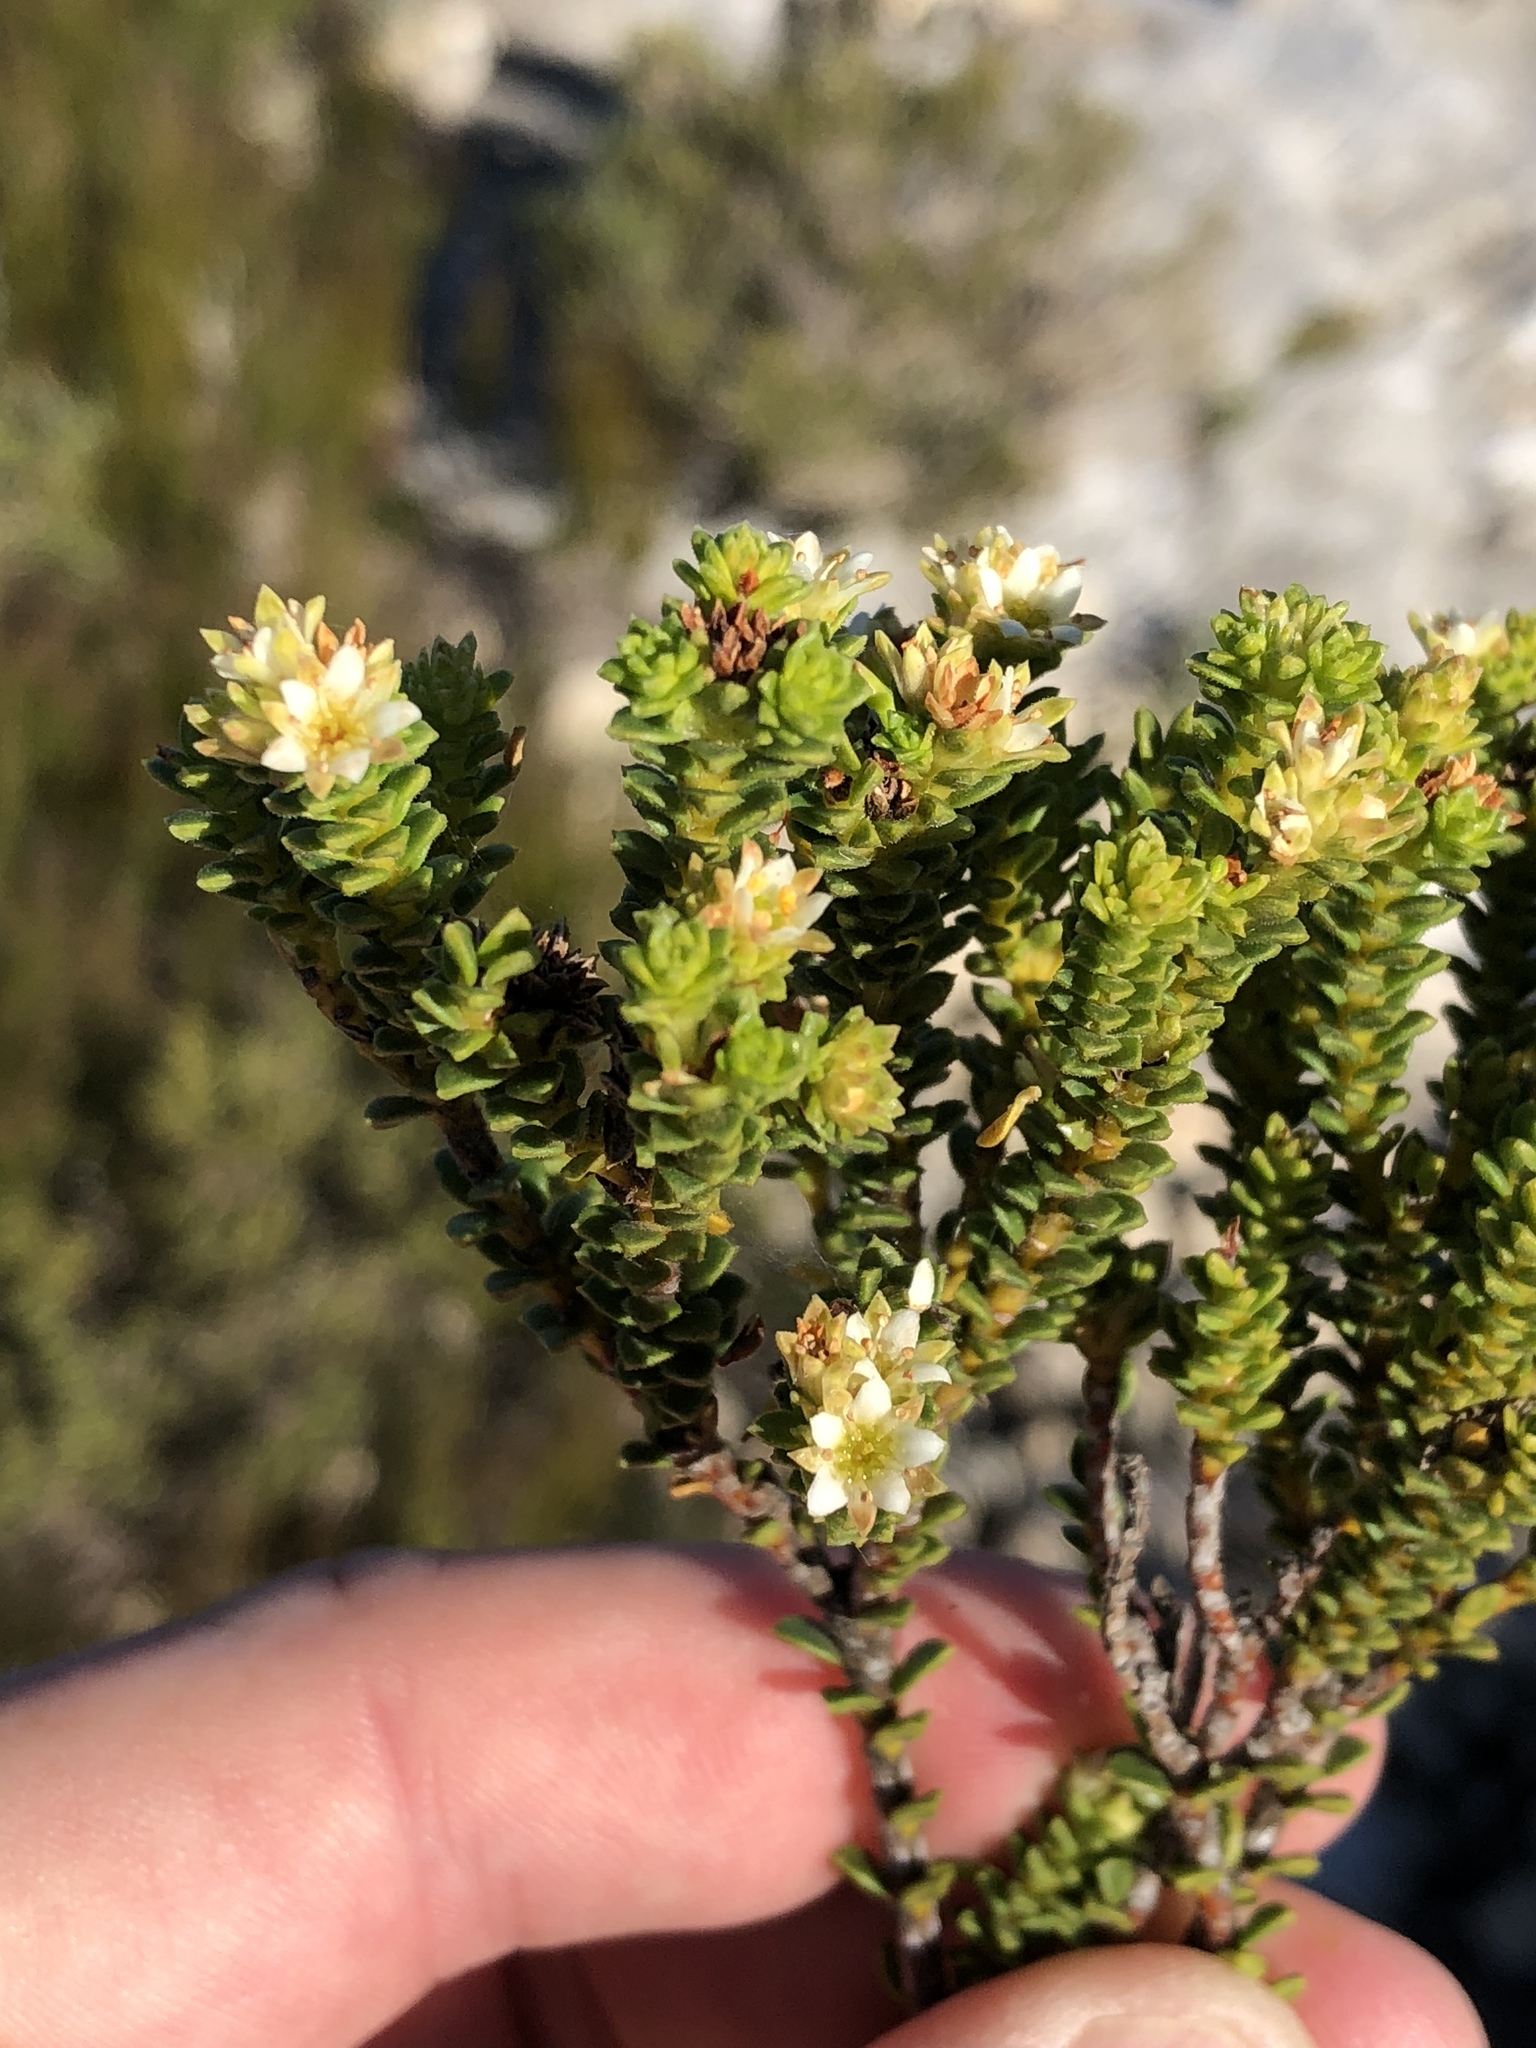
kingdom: Plantae
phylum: Tracheophyta
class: Magnoliopsida
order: Sapindales
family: Rutaceae
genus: Diosma
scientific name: Diosma echinulata
